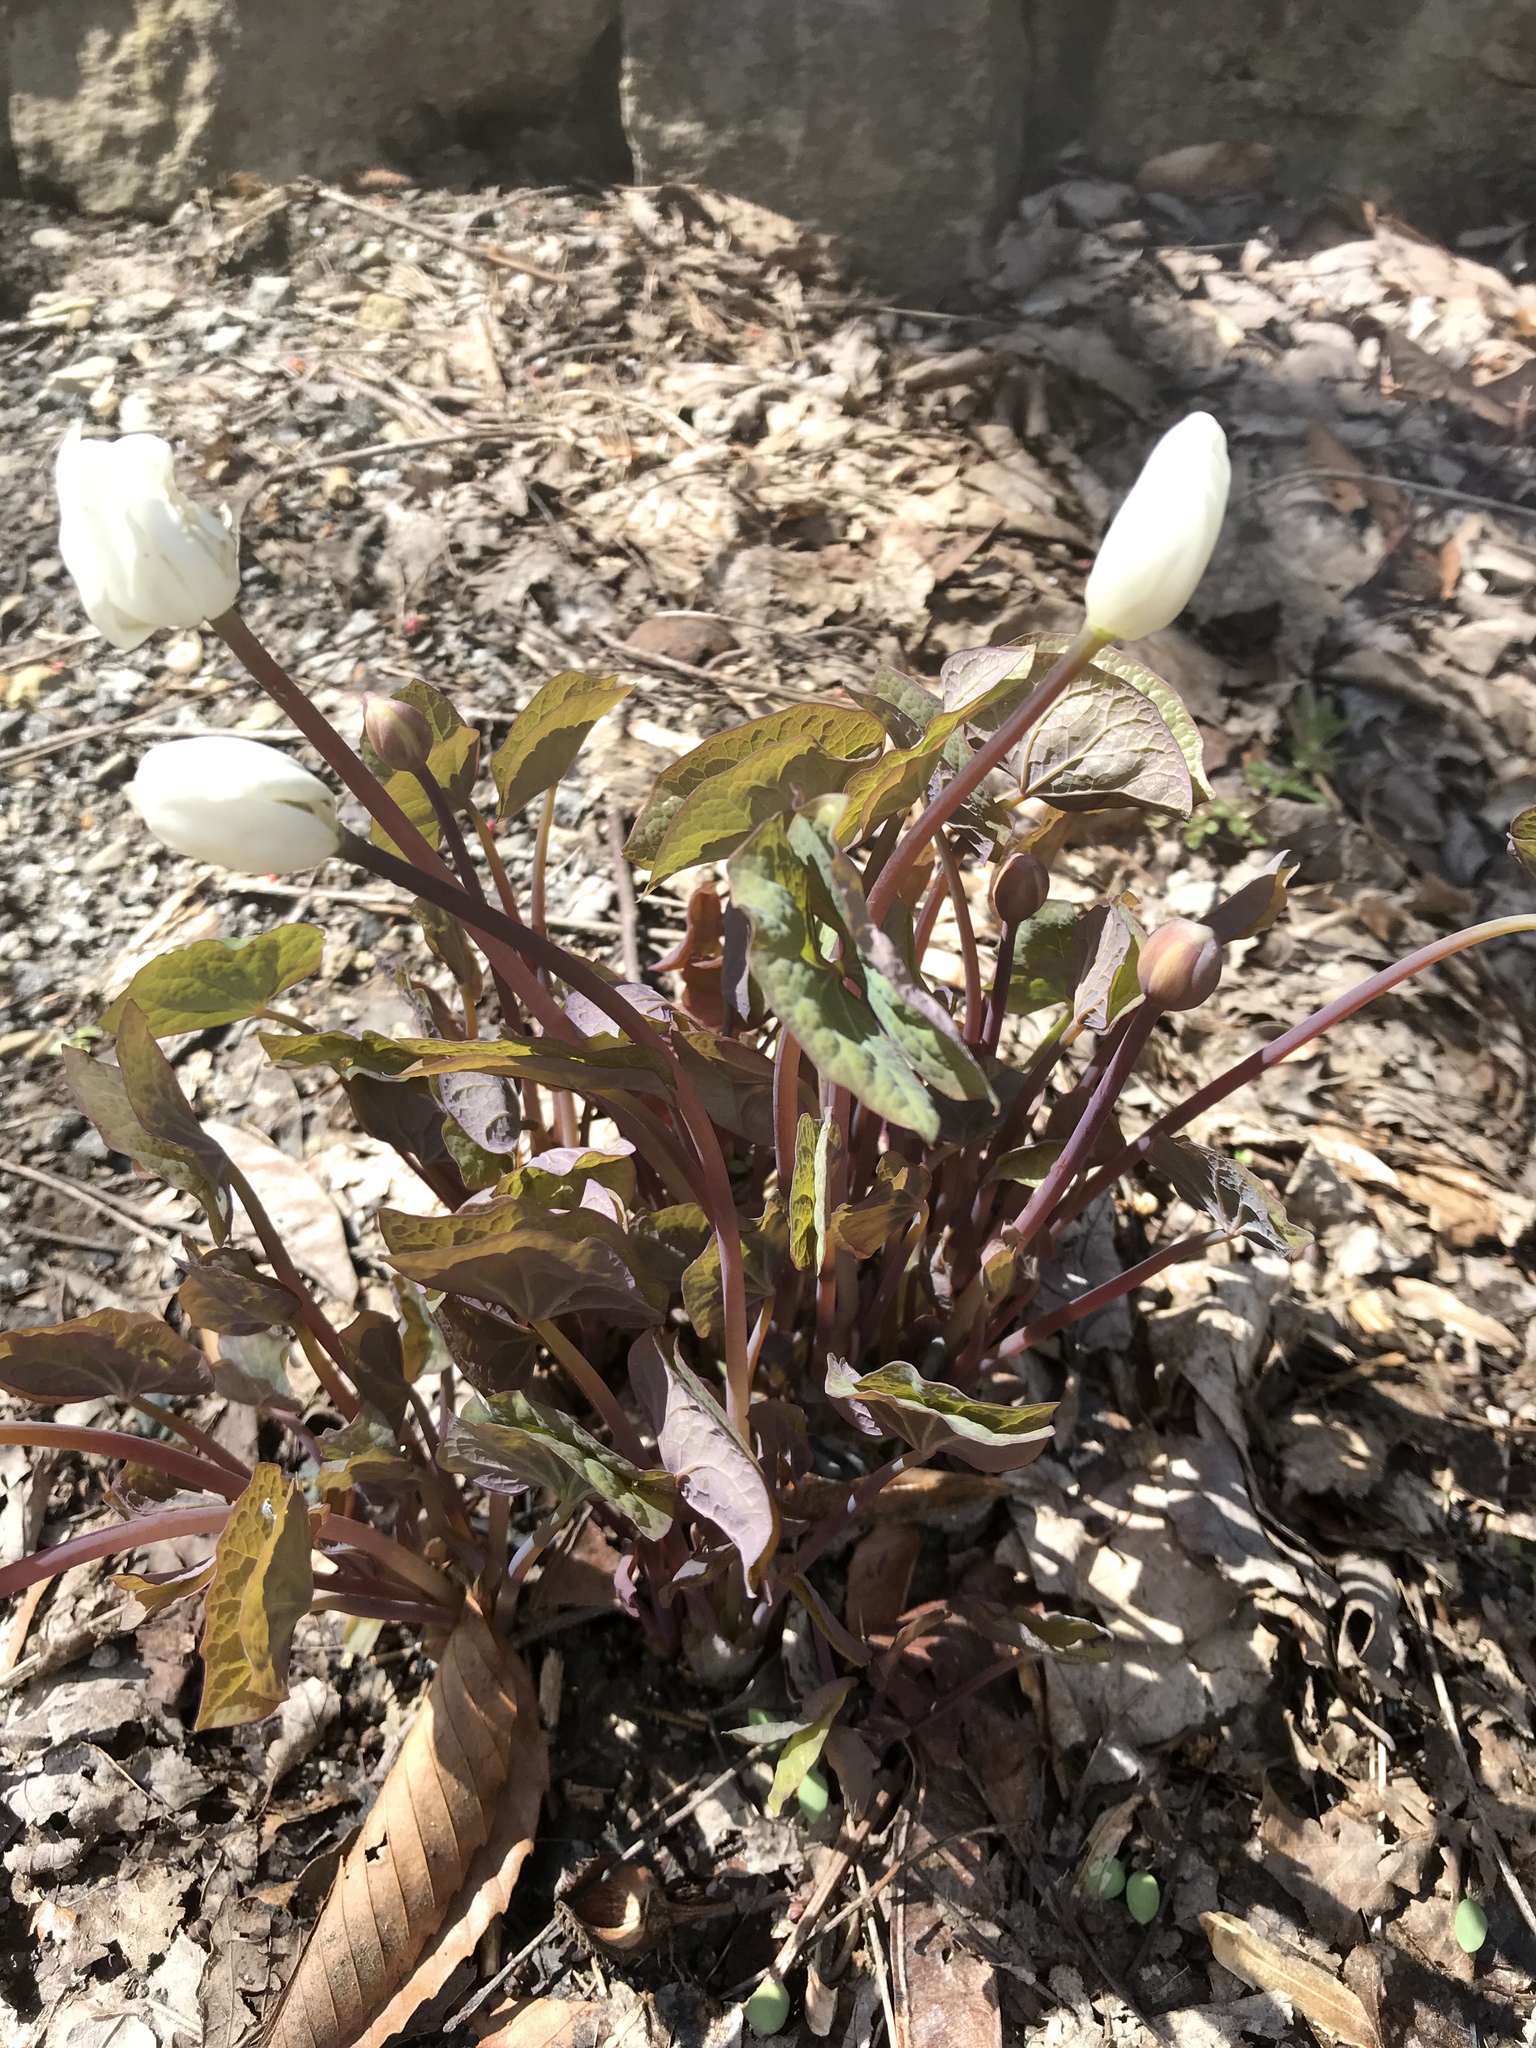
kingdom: Plantae
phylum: Tracheophyta
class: Magnoliopsida
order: Ranunculales
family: Berberidaceae
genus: Jeffersonia
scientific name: Jeffersonia diphylla
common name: Rheumatism-root
